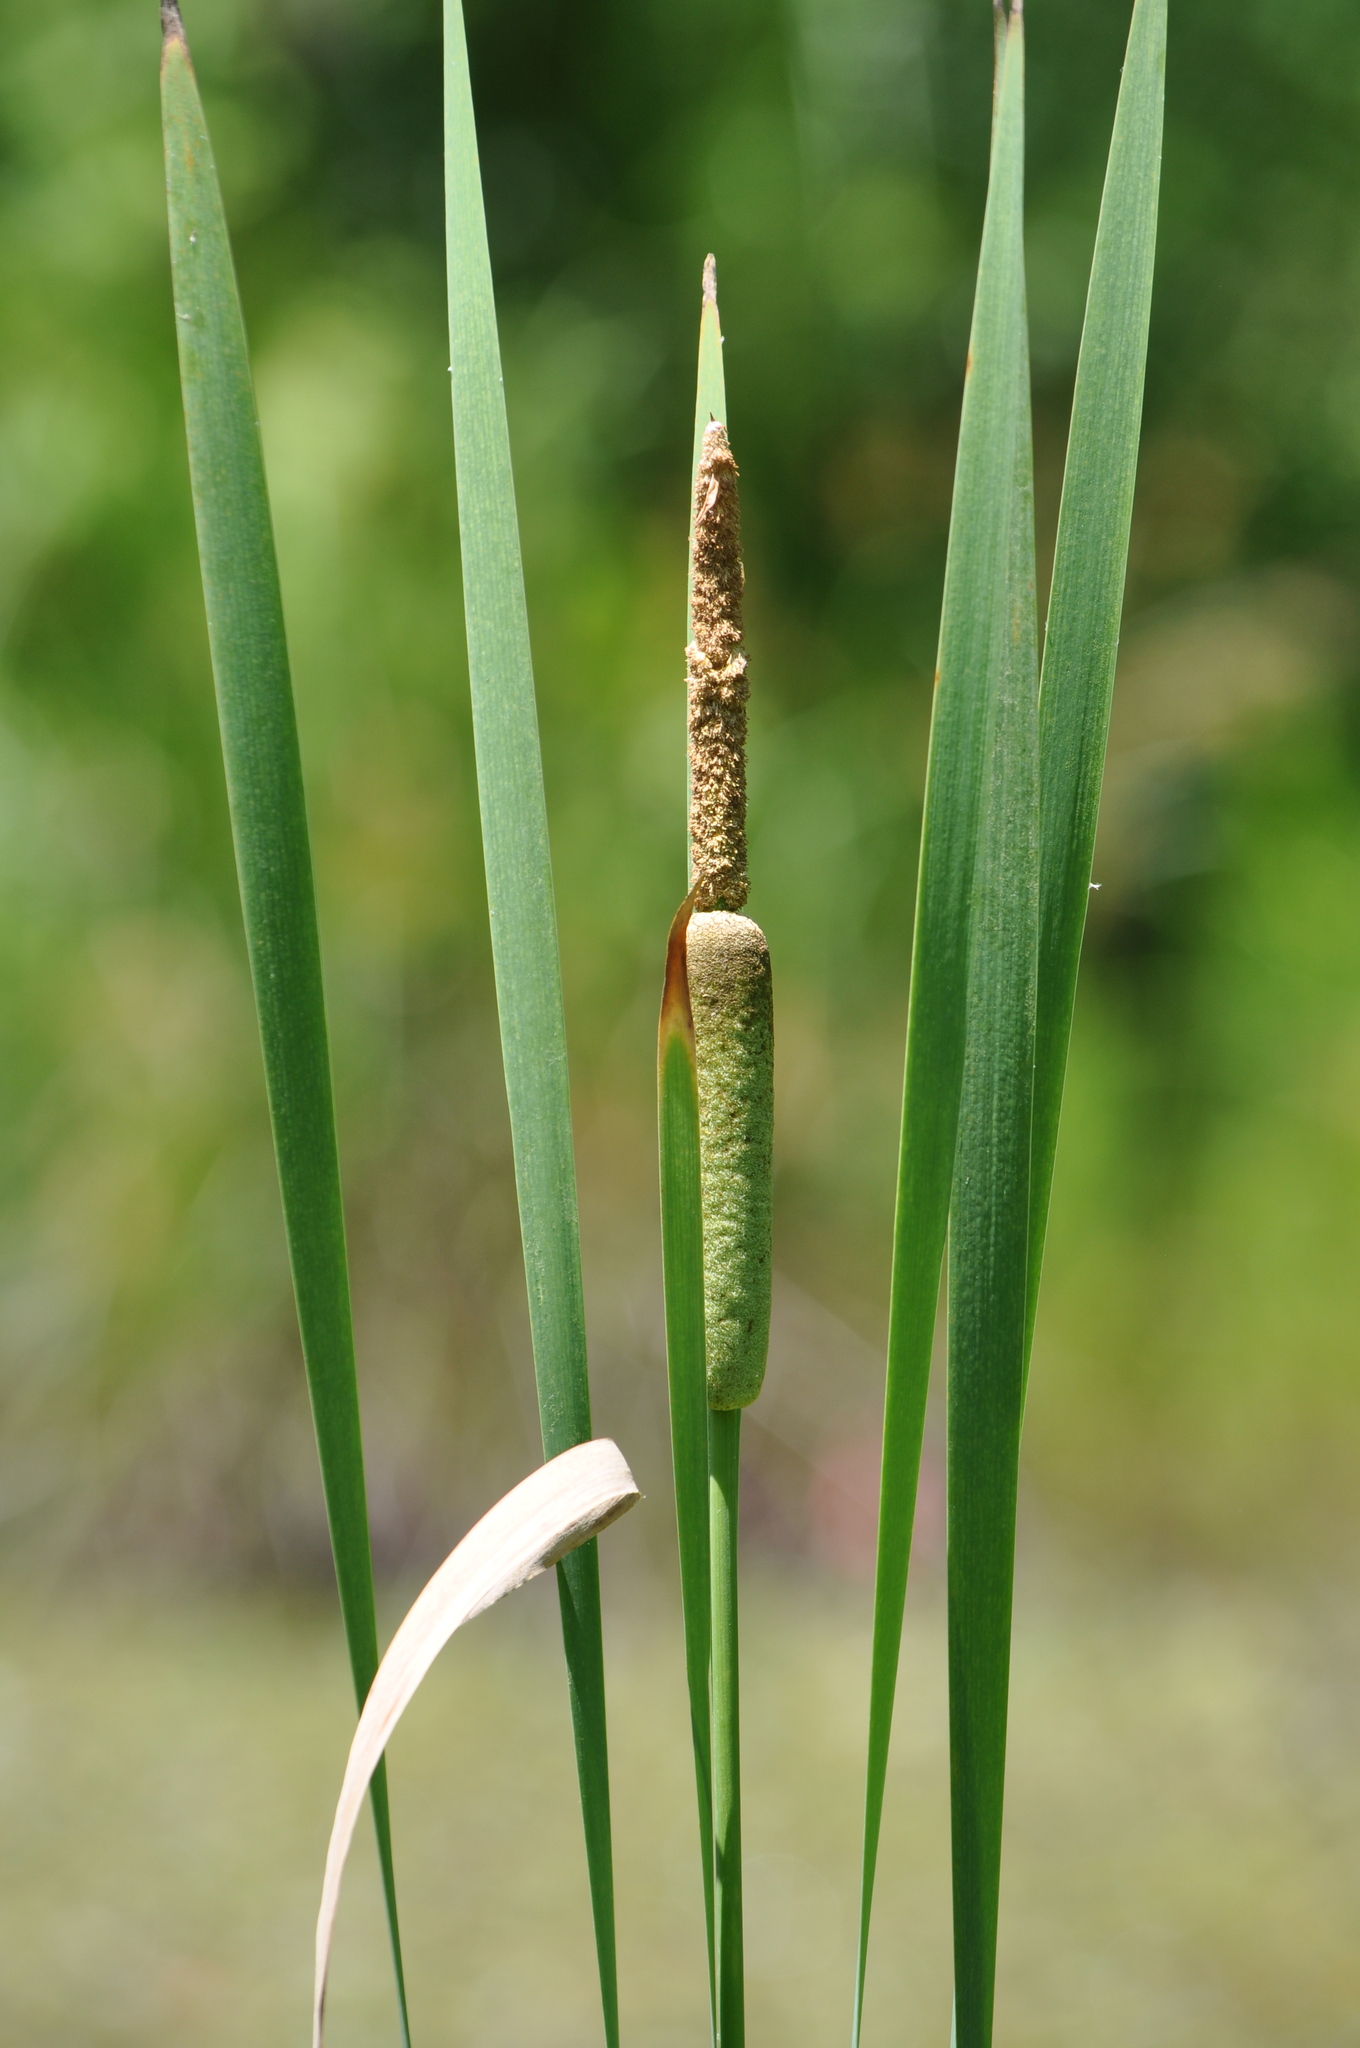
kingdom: Plantae
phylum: Tracheophyta
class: Liliopsida
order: Poales
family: Typhaceae
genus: Typha
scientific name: Typha latifolia
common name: Broadleaf cattail
